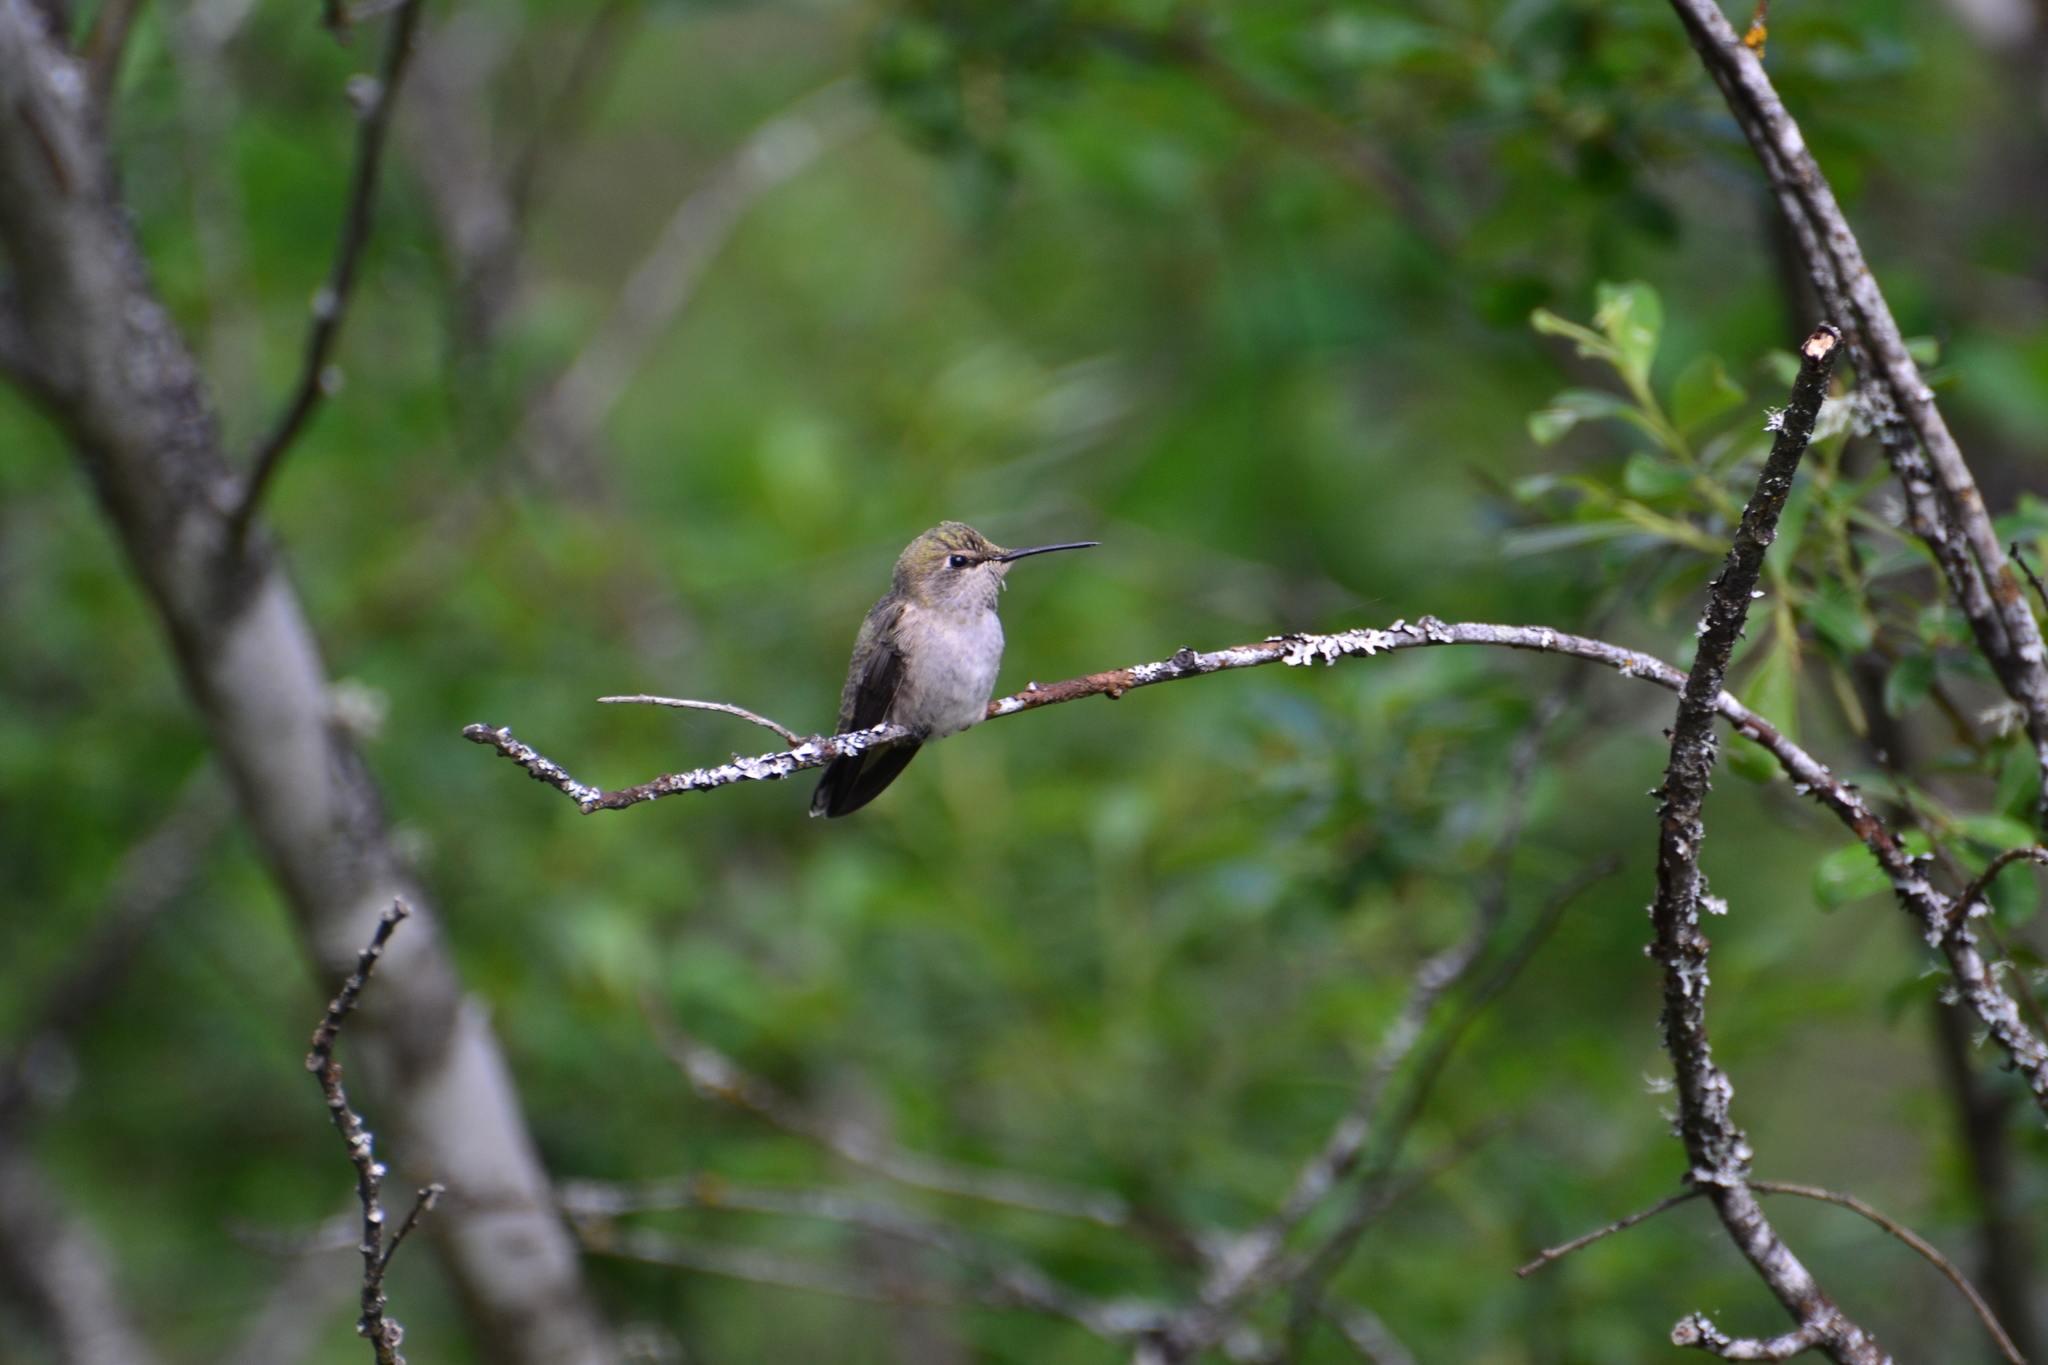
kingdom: Animalia
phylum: Chordata
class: Aves
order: Apodiformes
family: Trochilidae
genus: Calypte
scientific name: Calypte anna
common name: Anna's hummingbird
